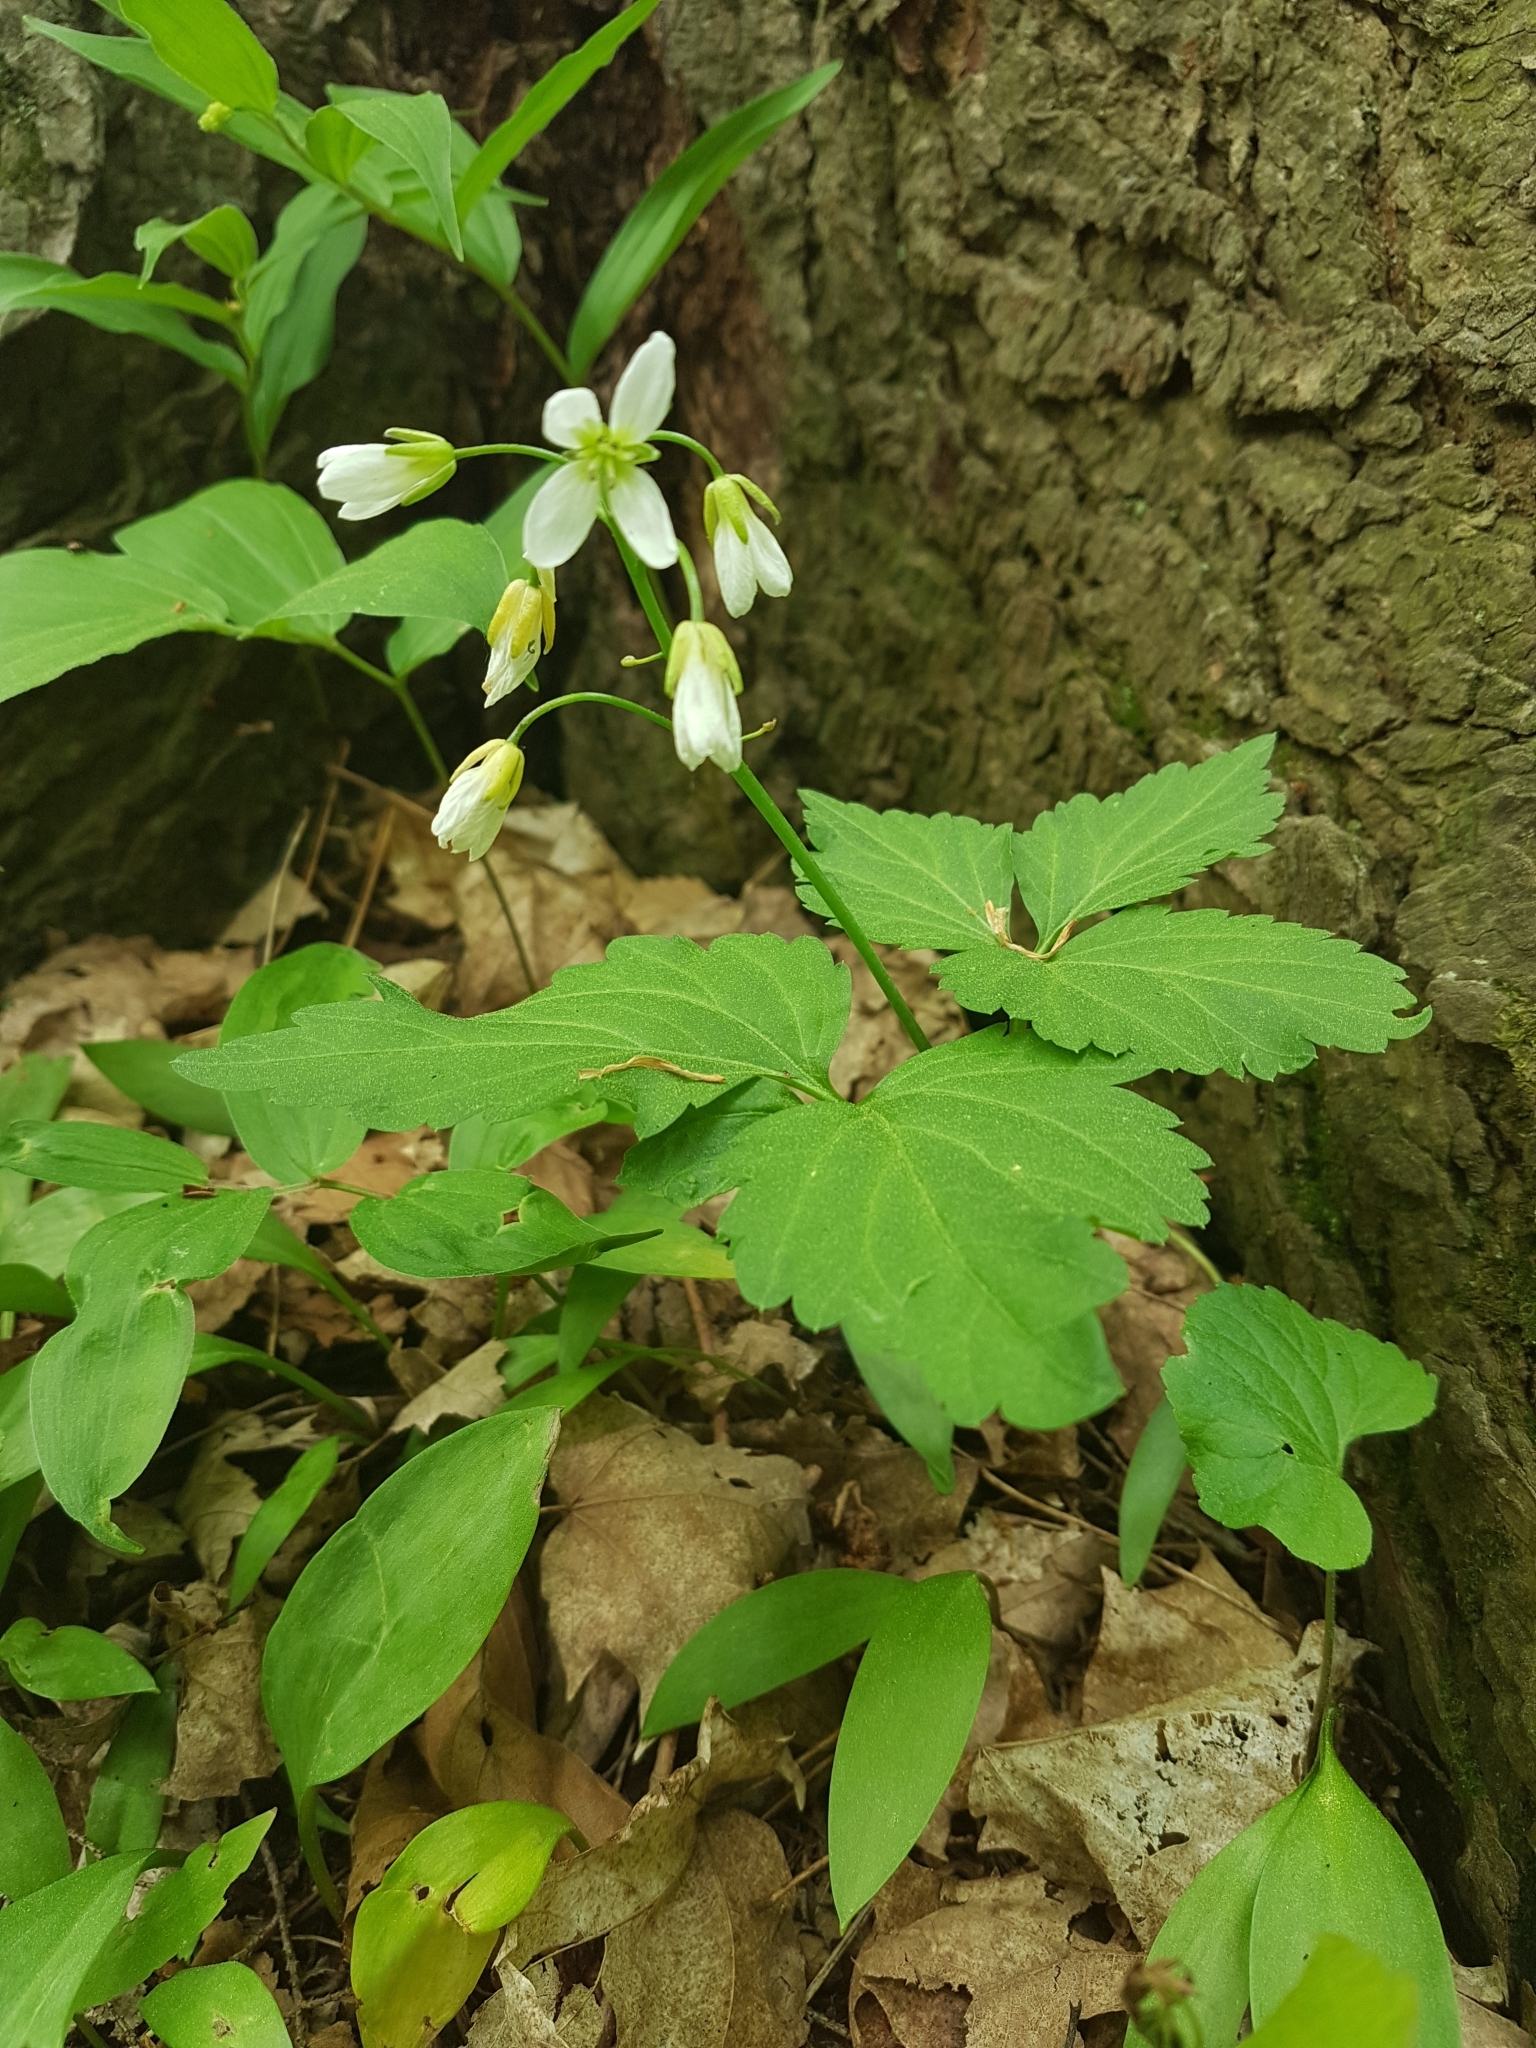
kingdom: Plantae
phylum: Tracheophyta
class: Magnoliopsida
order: Brassicales
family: Brassicaceae
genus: Cardamine
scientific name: Cardamine diphylla
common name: Broad-leaved toothwort
